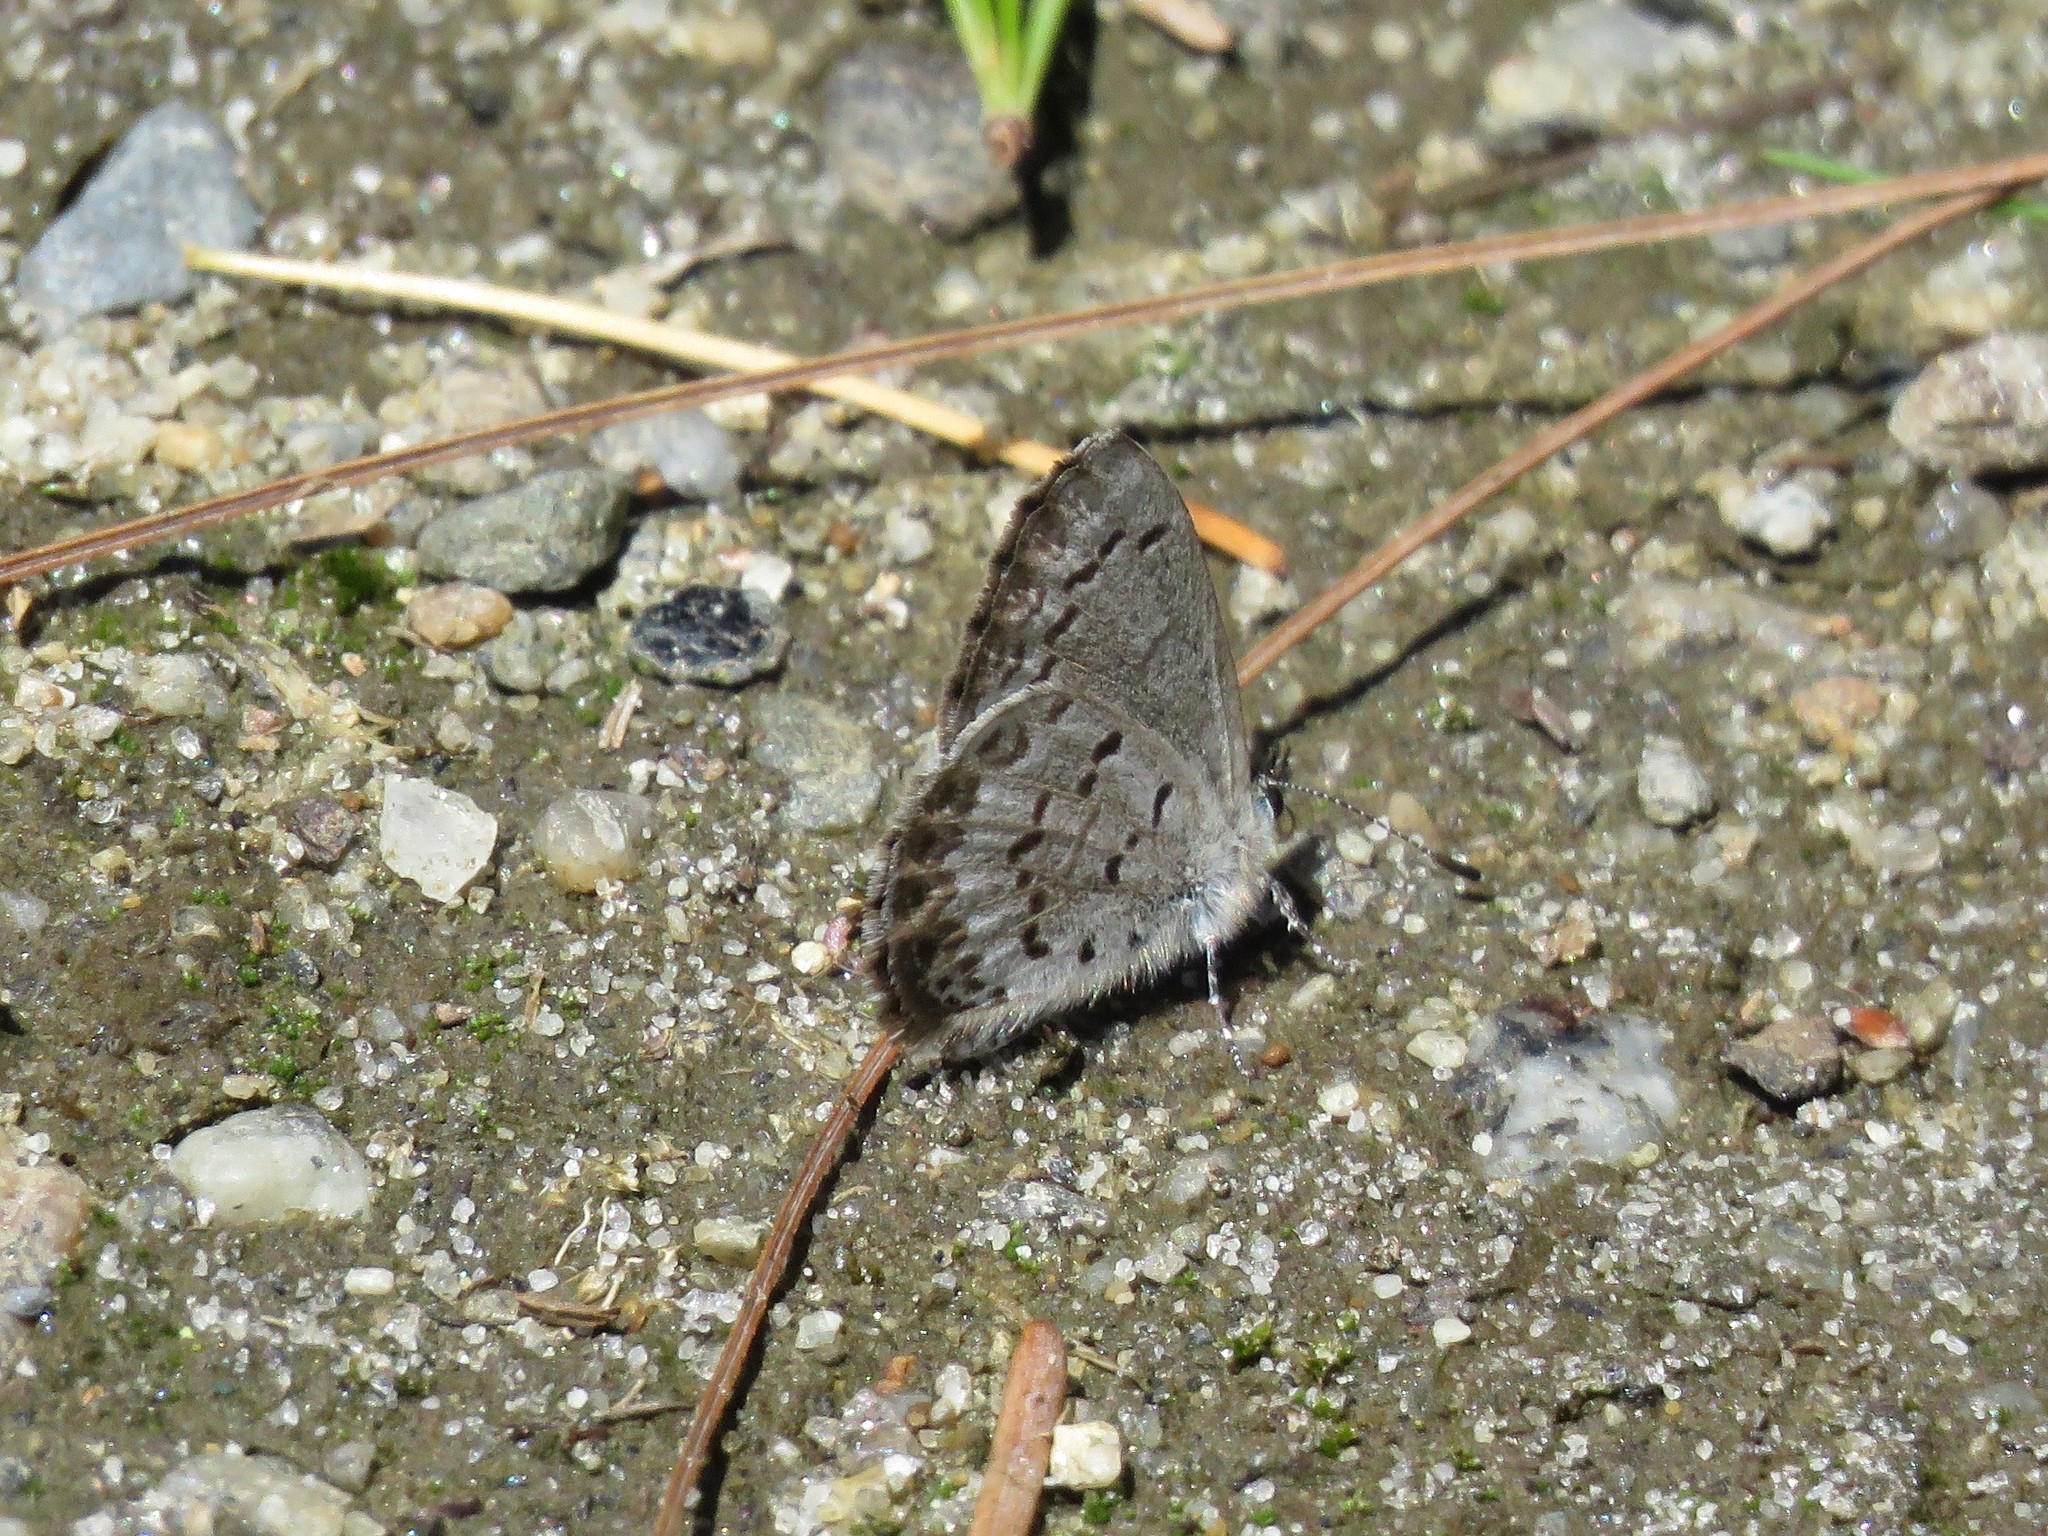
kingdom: Animalia
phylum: Arthropoda
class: Insecta
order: Lepidoptera
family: Lycaenidae
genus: Celastrina
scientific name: Celastrina lucia
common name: Lucia azure
